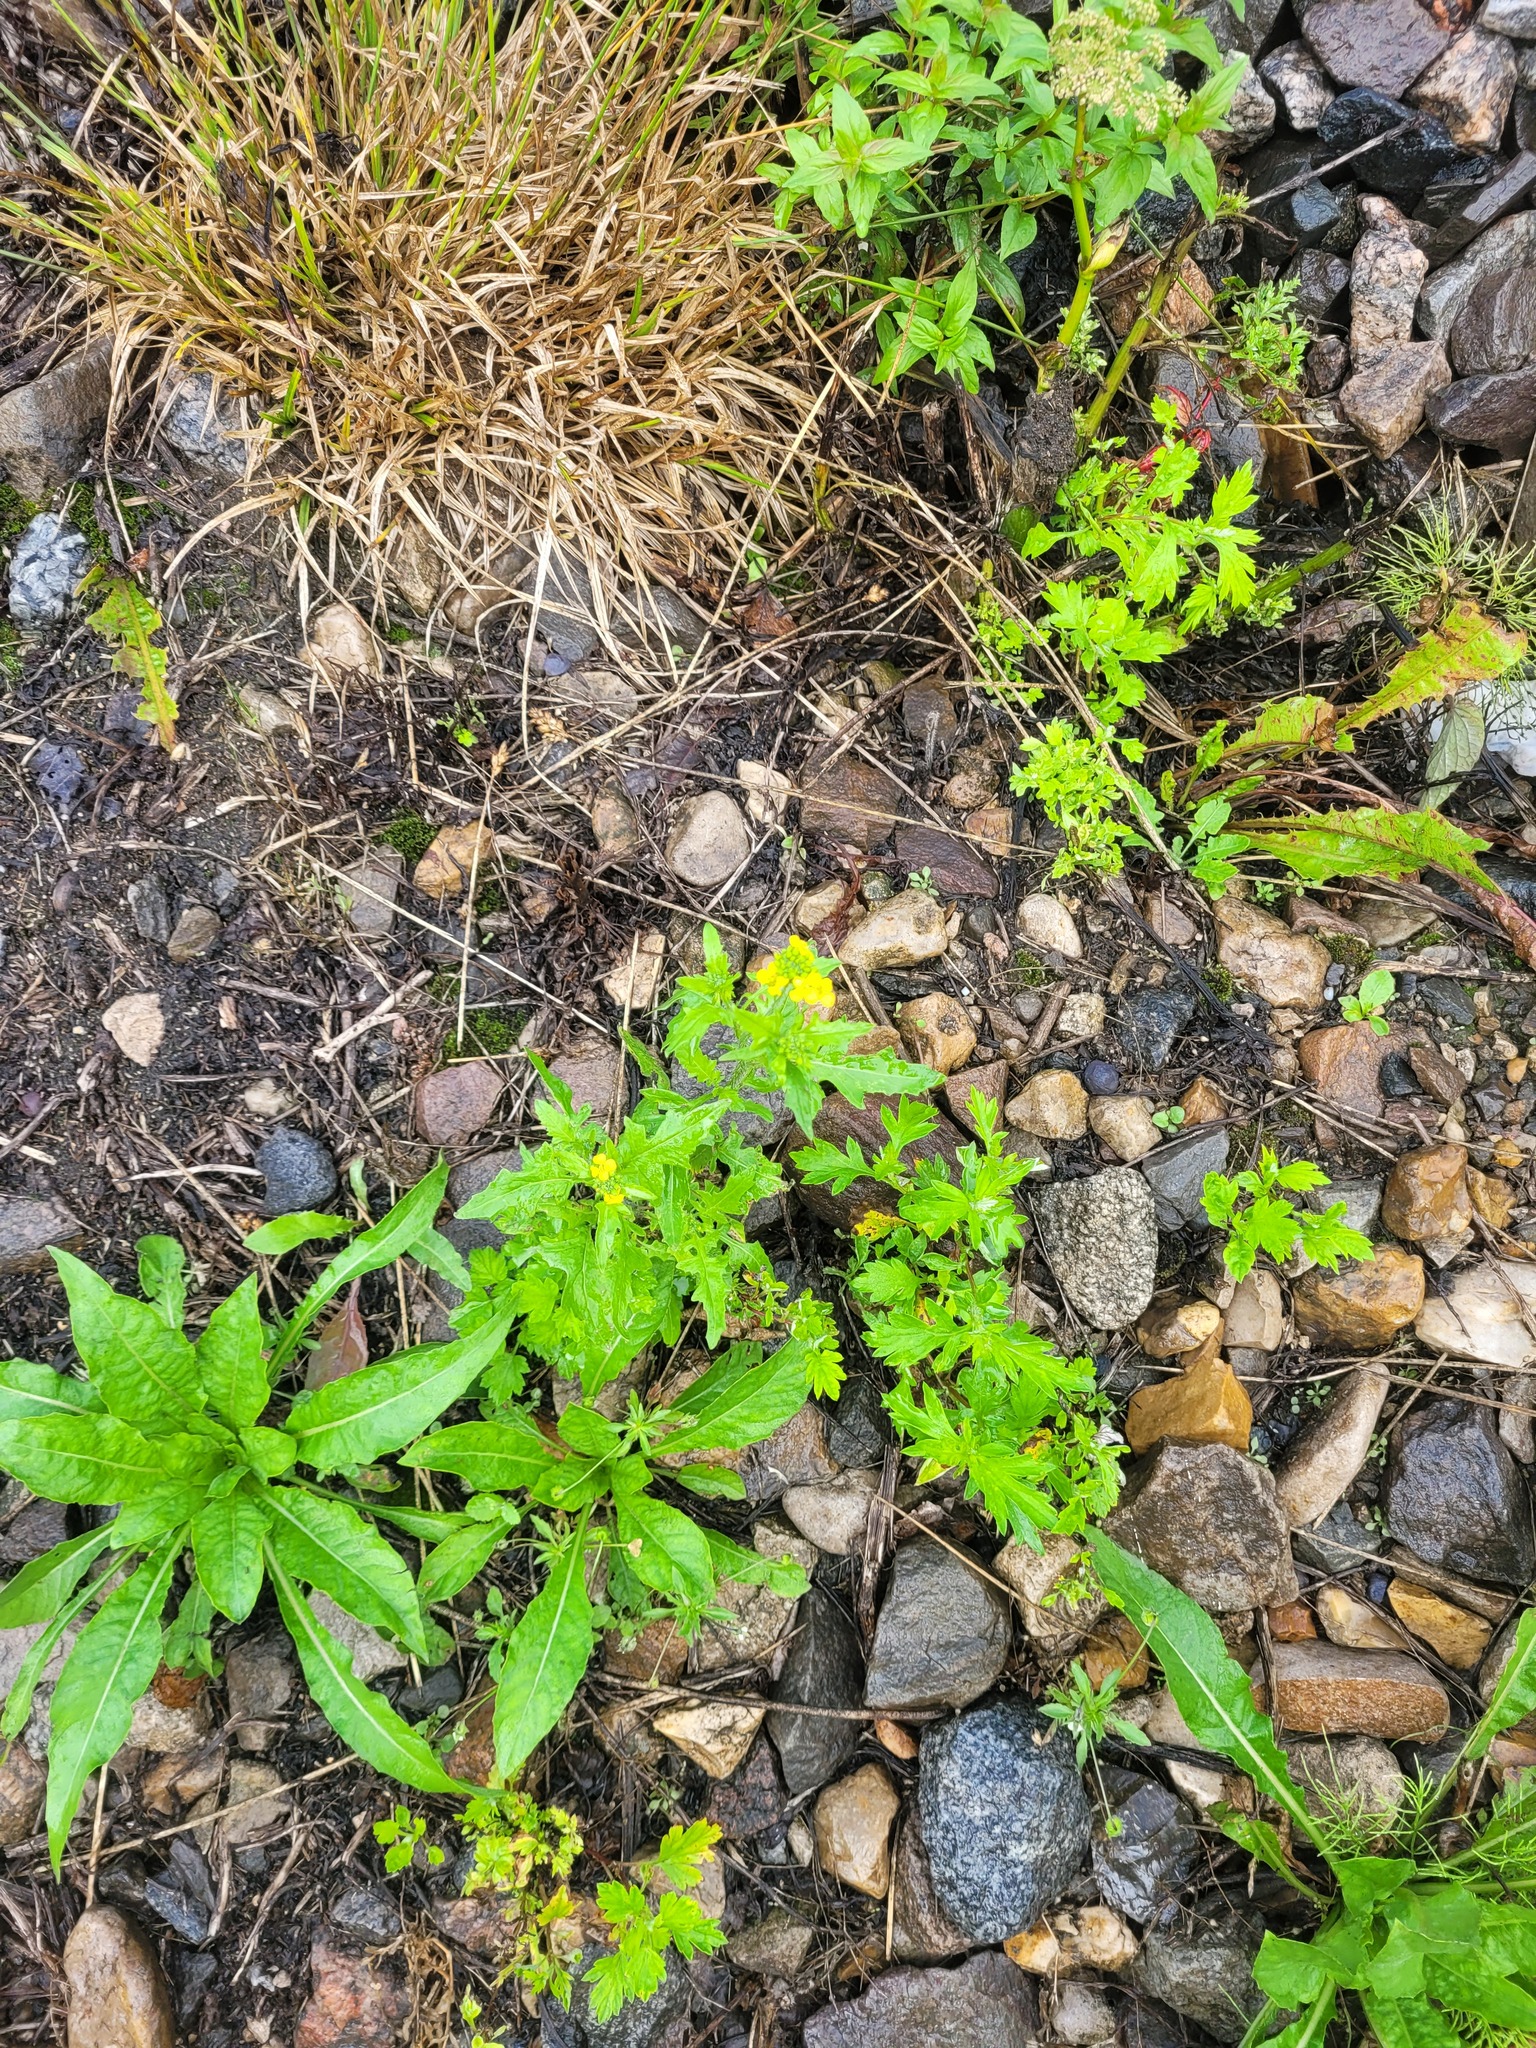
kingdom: Plantae
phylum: Tracheophyta
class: Magnoliopsida
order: Brassicales
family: Brassicaceae
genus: Sisymbrium
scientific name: Sisymbrium loeselii
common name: False london-rocket
